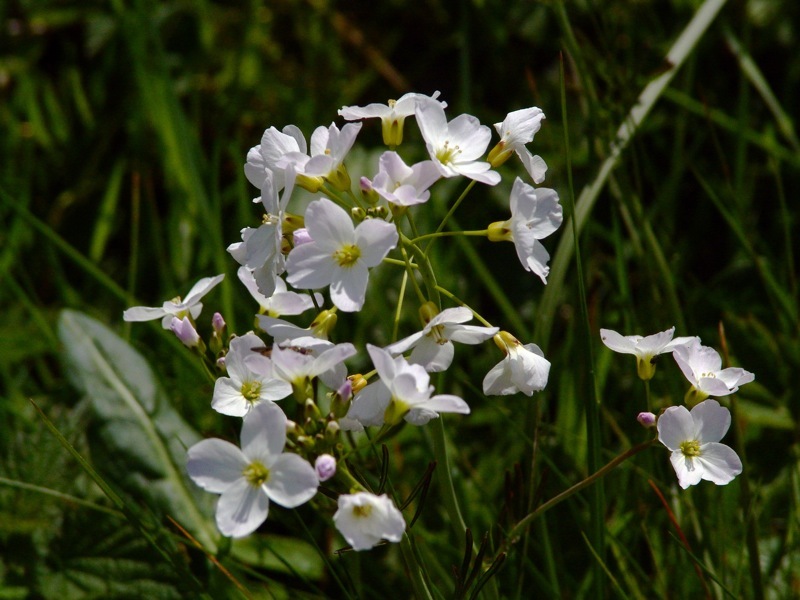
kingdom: Plantae
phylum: Tracheophyta
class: Magnoliopsida
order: Brassicales
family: Brassicaceae
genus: Cardamine
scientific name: Cardamine pratensis
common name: Cuckoo flower
